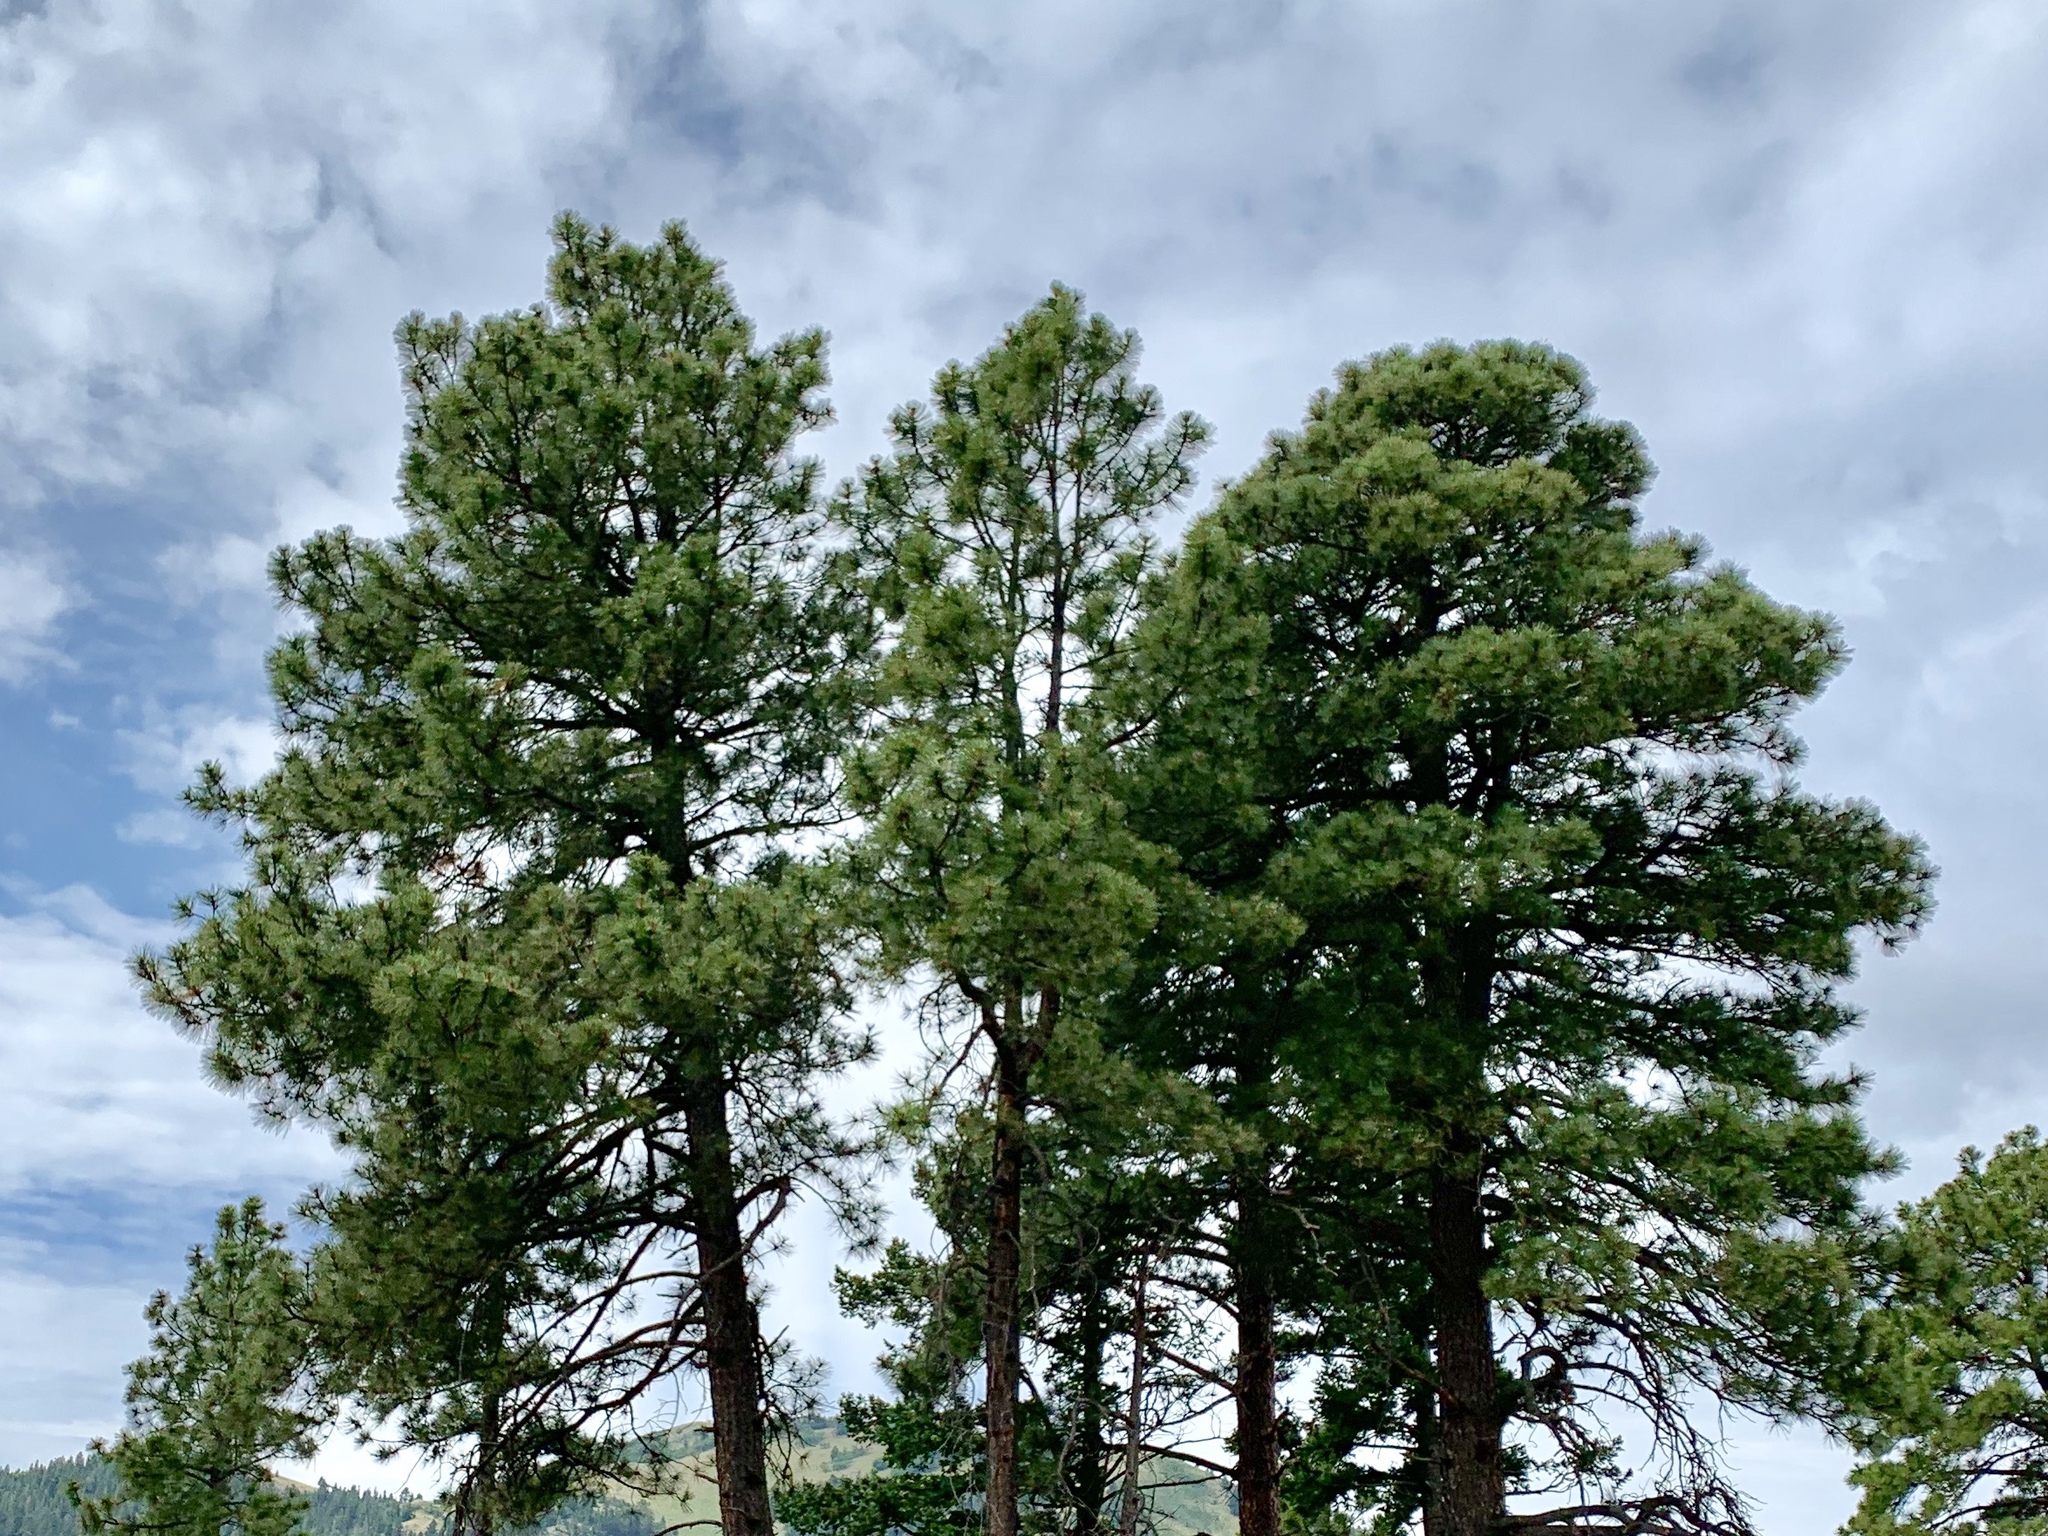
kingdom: Plantae
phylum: Tracheophyta
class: Pinopsida
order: Pinales
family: Pinaceae
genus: Pinus
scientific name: Pinus ponderosa
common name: Western yellow-pine
